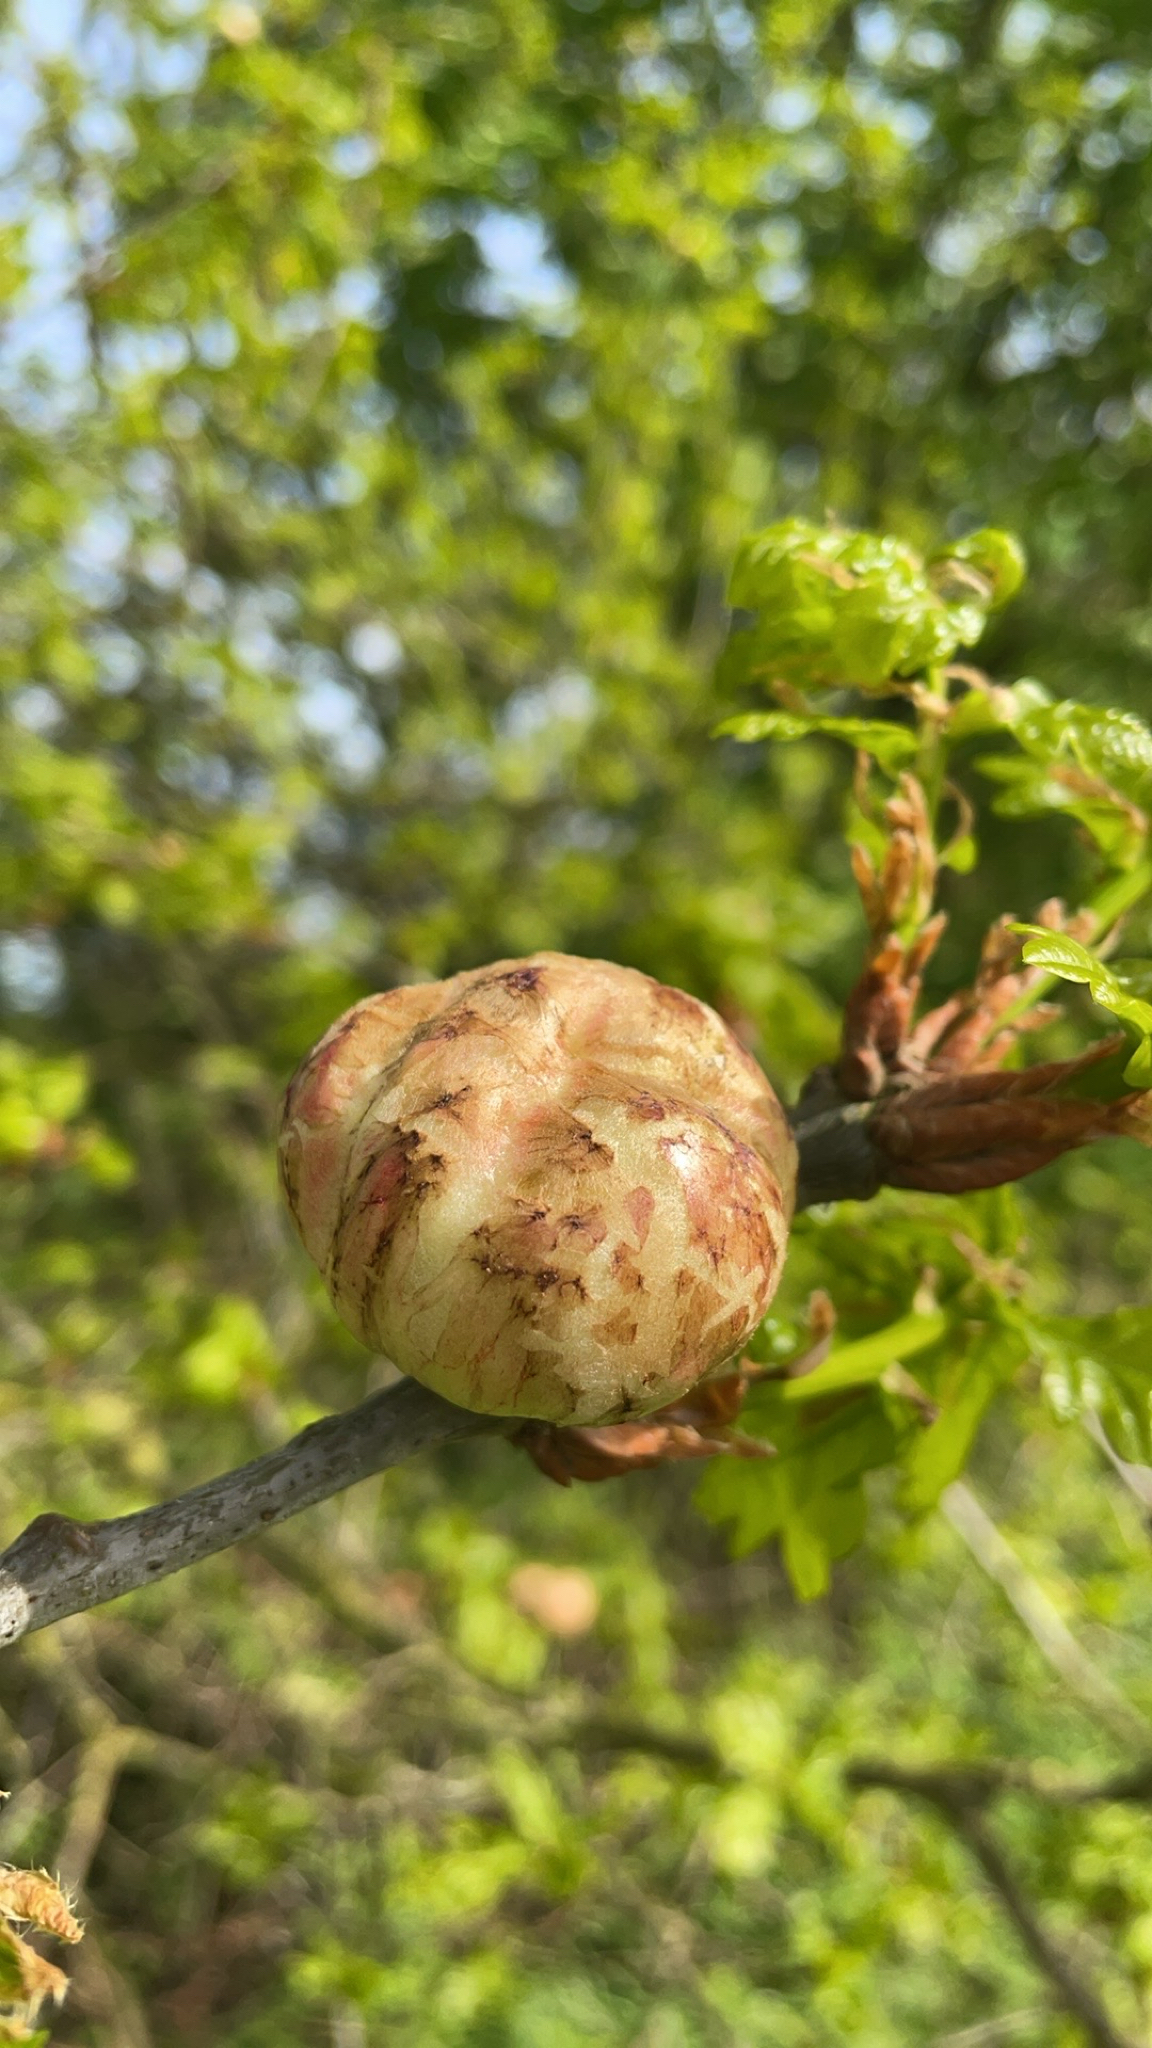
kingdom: Animalia
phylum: Arthropoda
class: Insecta
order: Hymenoptera
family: Cynipidae
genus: Biorhiza
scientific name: Biorhiza pallida
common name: Oak apple
